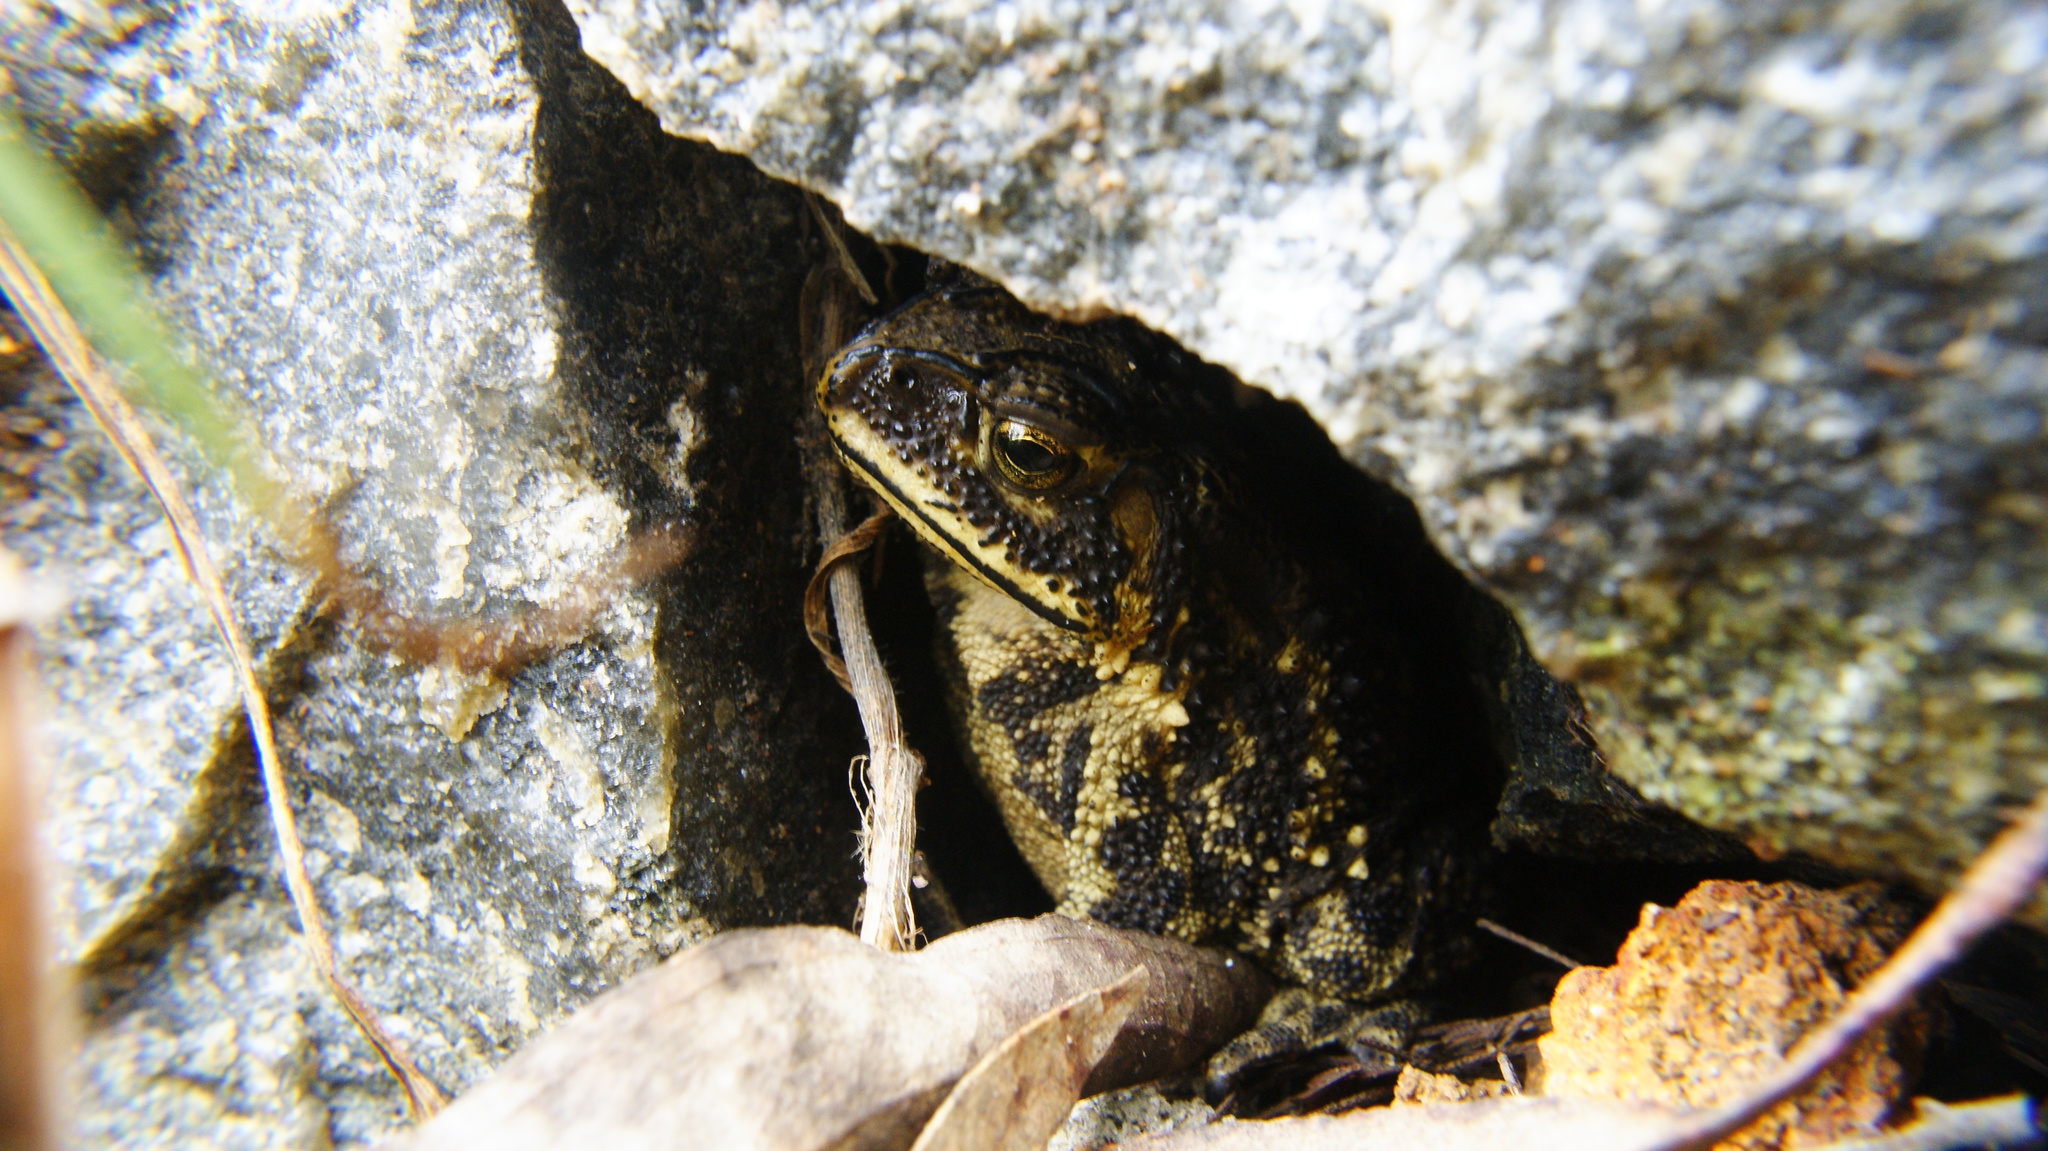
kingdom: Animalia
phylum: Chordata
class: Amphibia
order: Anura
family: Bufonidae
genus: Duttaphrynus
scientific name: Duttaphrynus melanostictus
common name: Common sunda toad
